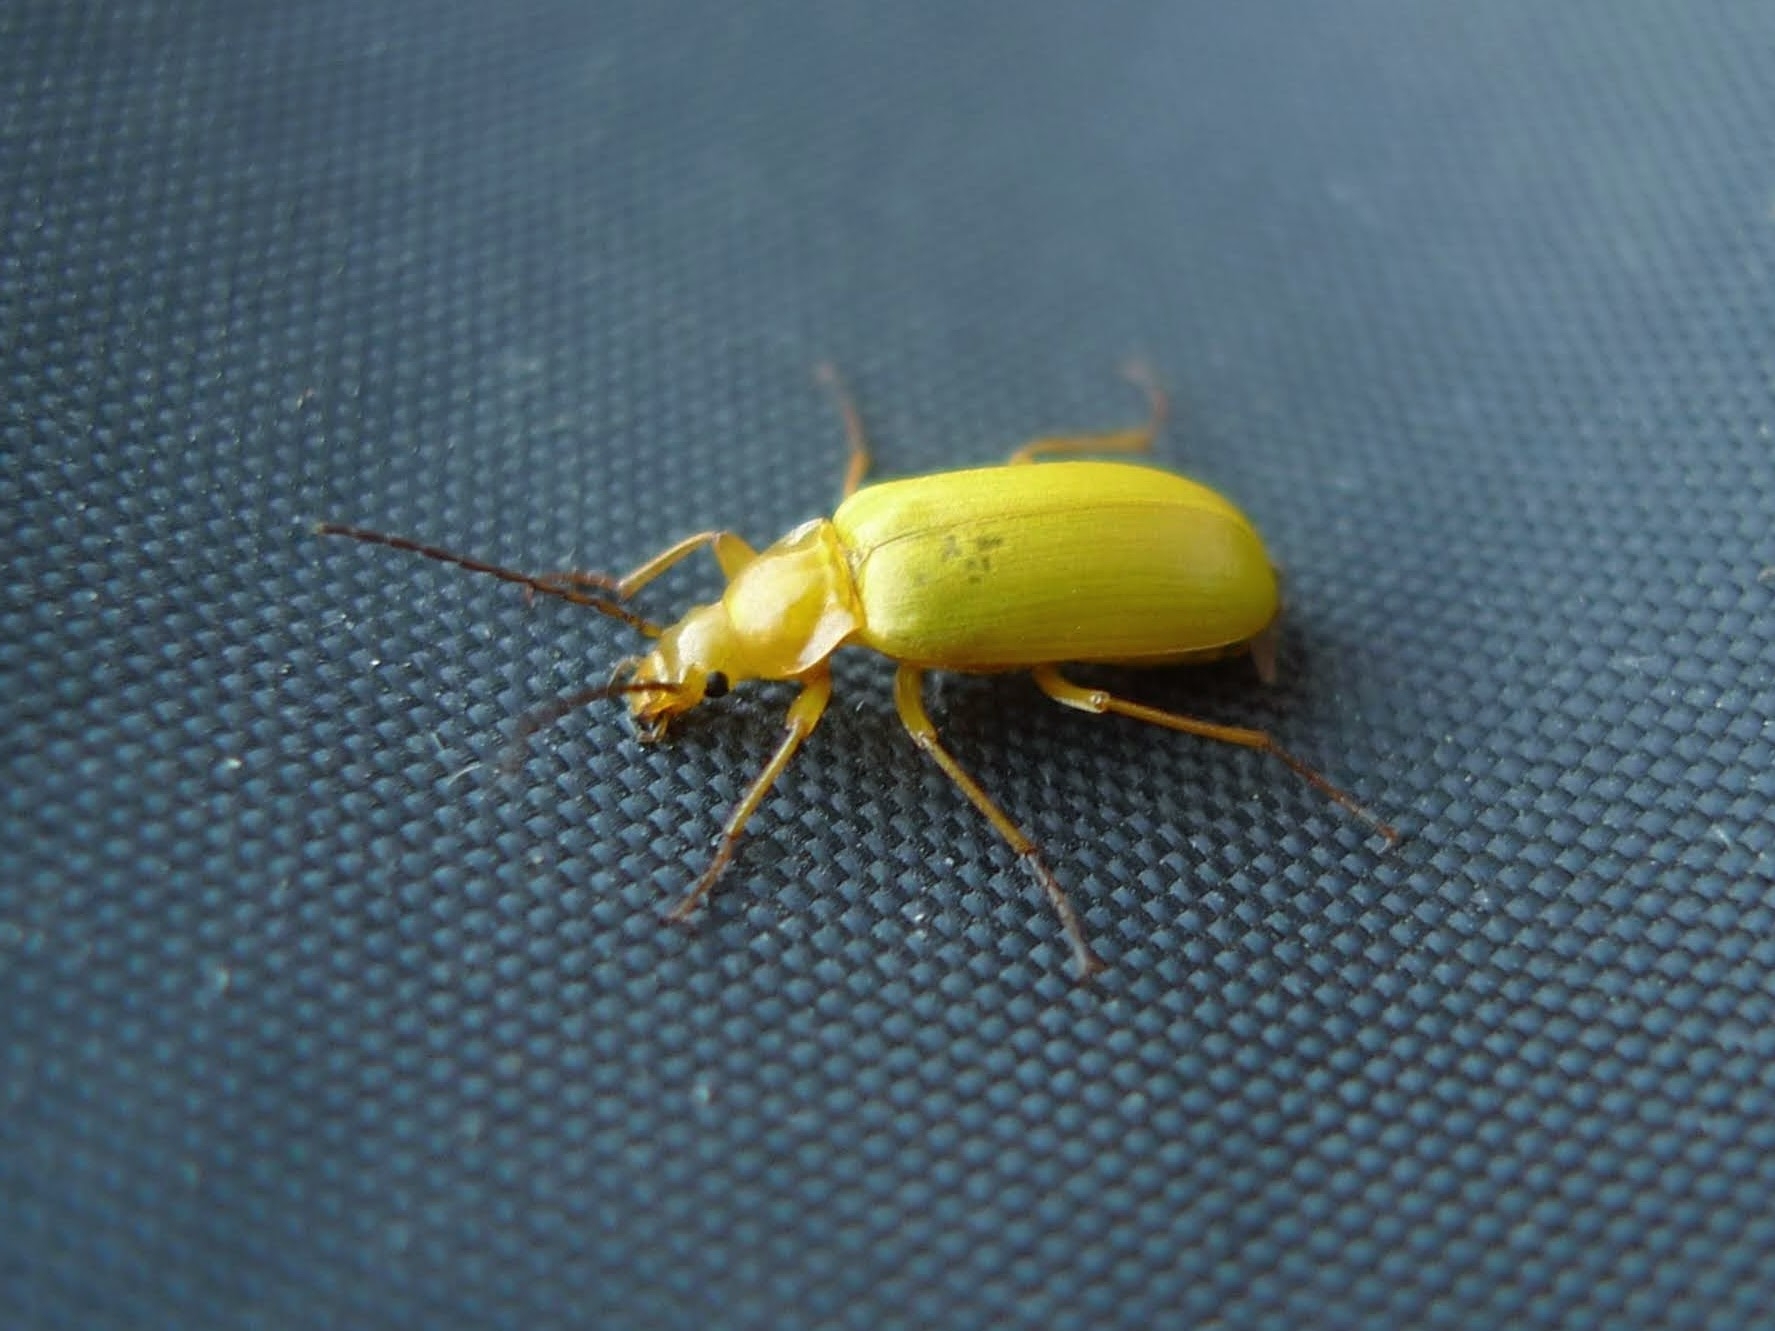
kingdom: Animalia
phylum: Arthropoda
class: Insecta
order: Coleoptera
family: Tenebrionidae
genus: Cteniopus
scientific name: Cteniopus sulphureus
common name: Sulphur beetle
